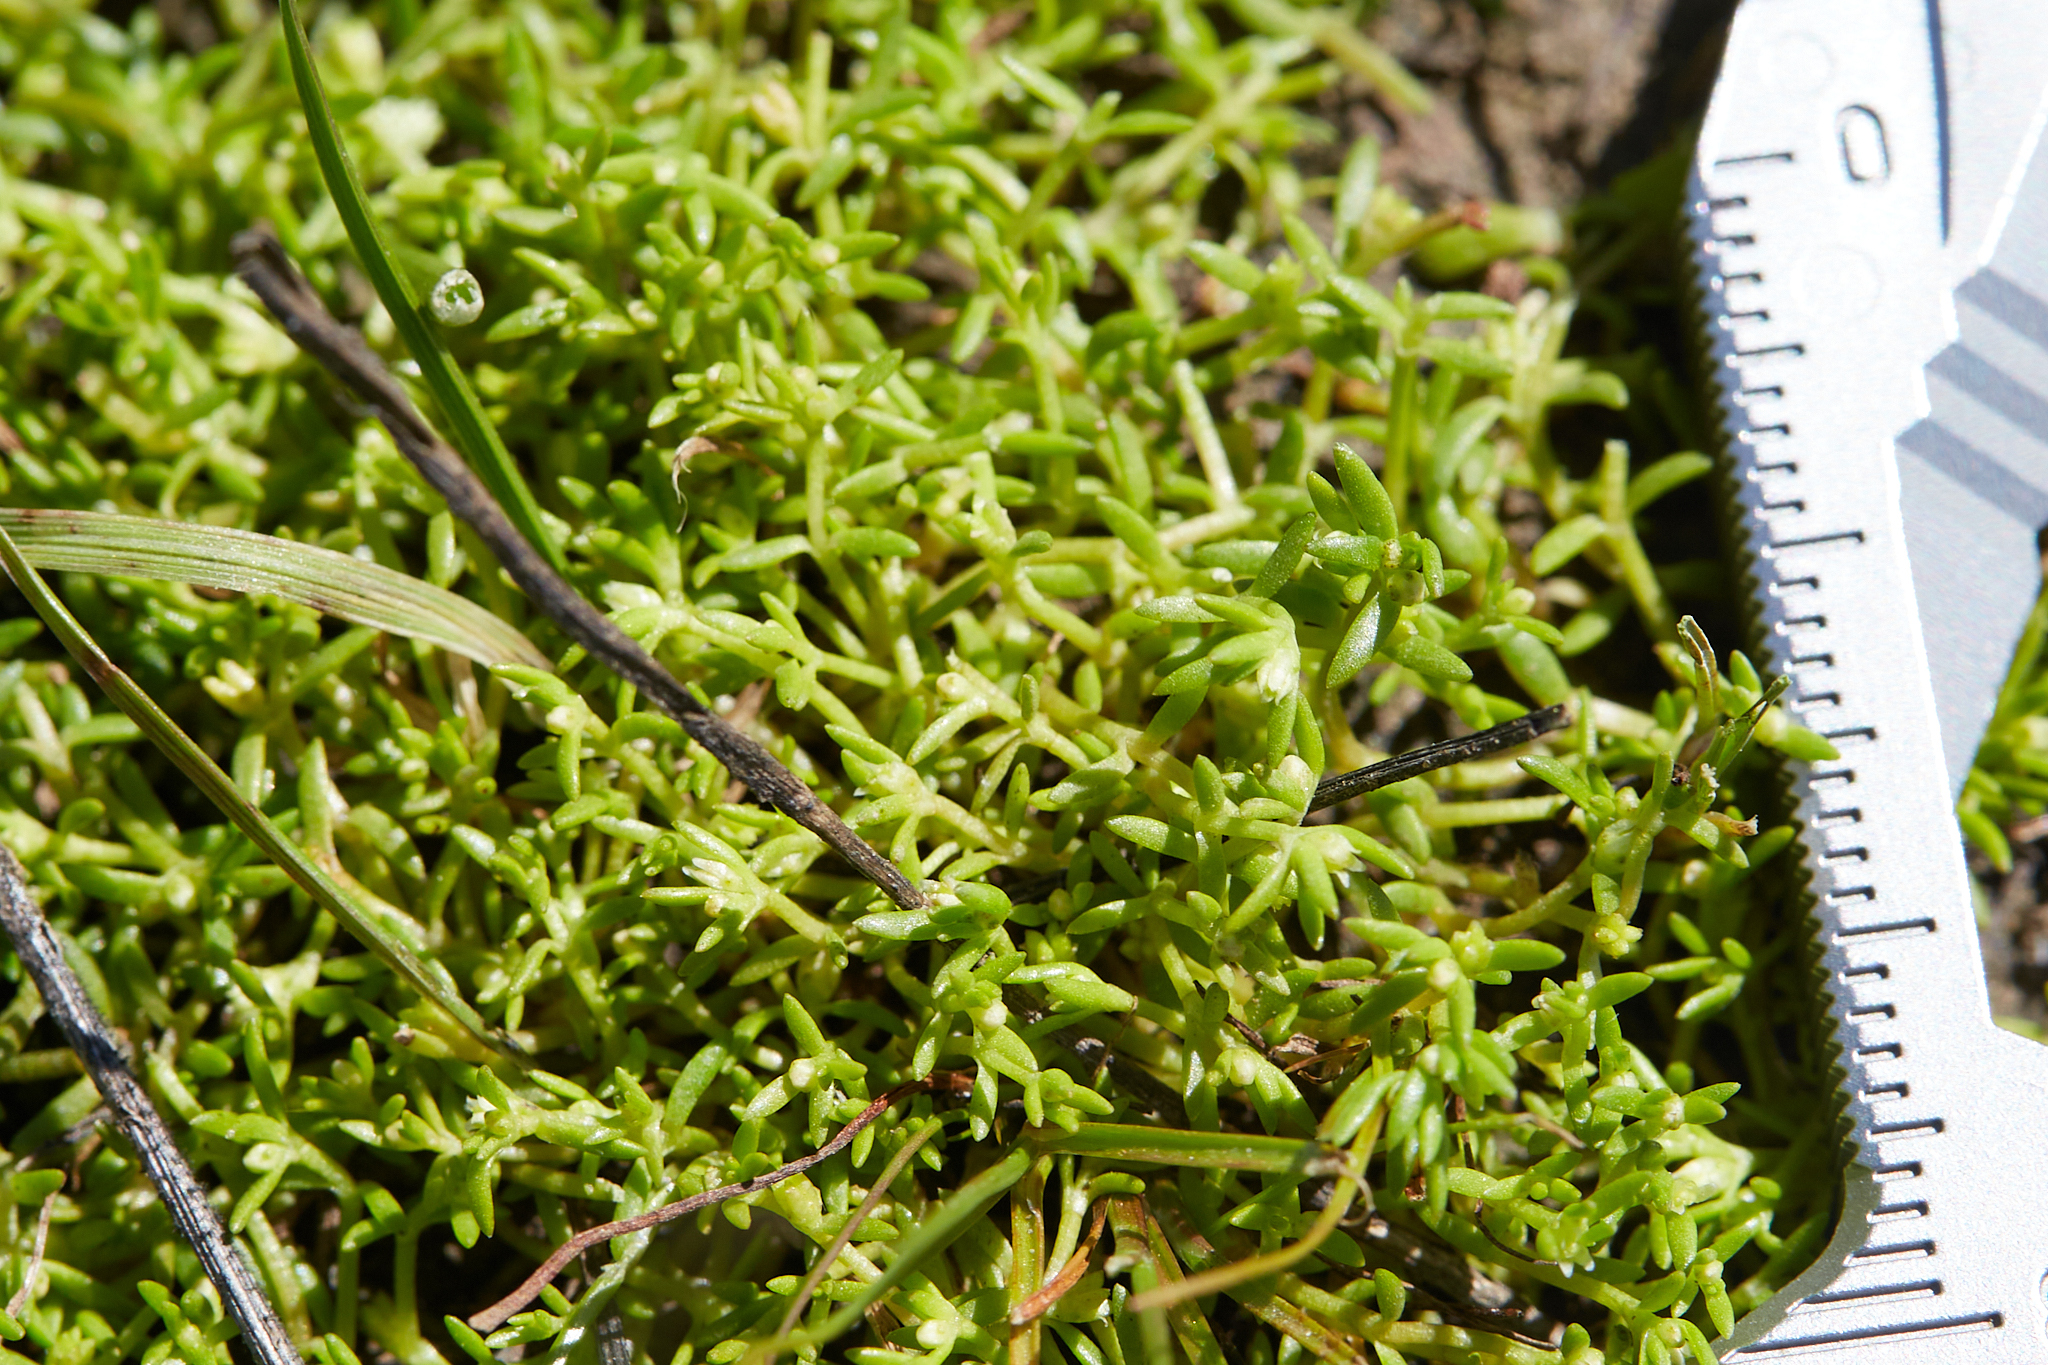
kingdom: Plantae
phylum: Tracheophyta
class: Magnoliopsida
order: Saxifragales
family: Crassulaceae
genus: Crassula
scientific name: Crassula aquatica
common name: Pigmyweed
